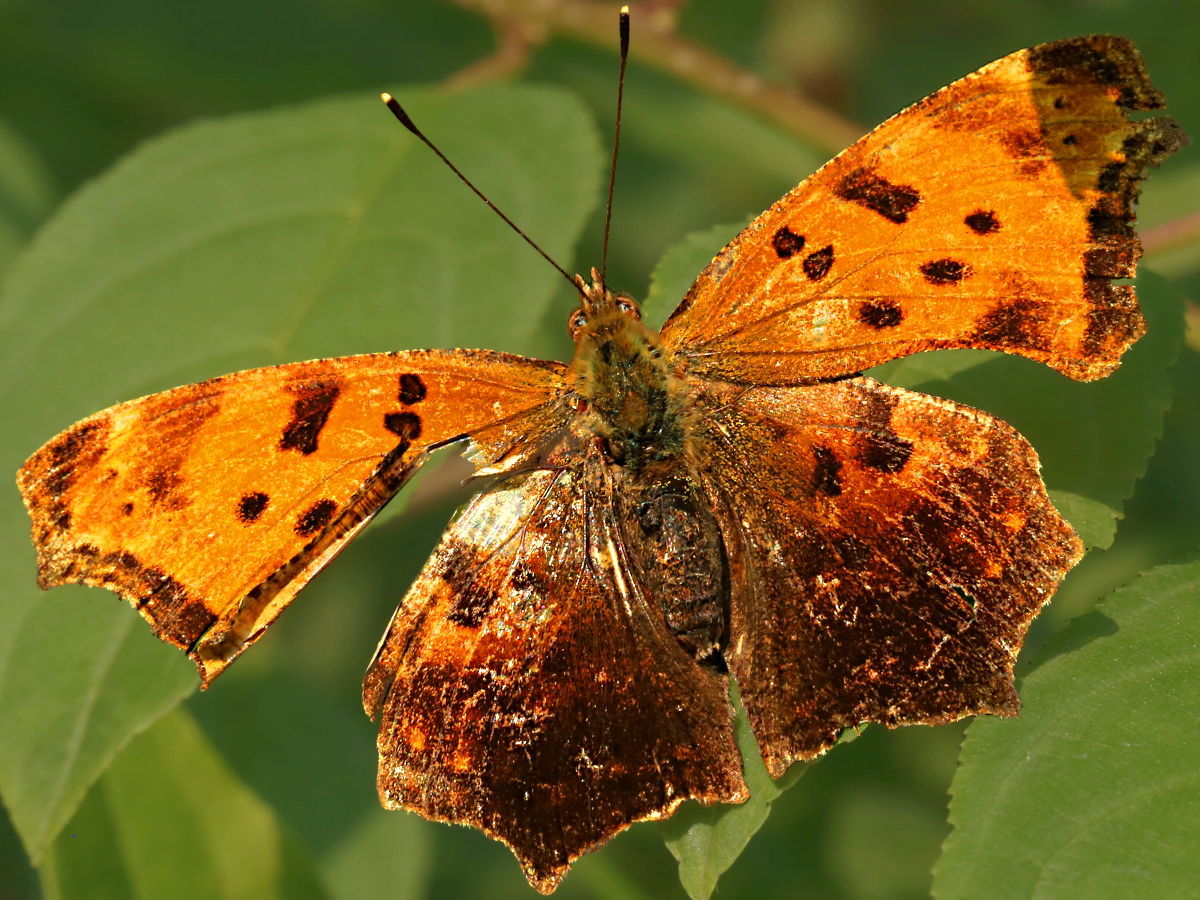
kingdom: Animalia
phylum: Arthropoda
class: Insecta
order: Lepidoptera
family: Nymphalidae
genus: Polygonia
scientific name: Polygonia comma
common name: Eastern comma
